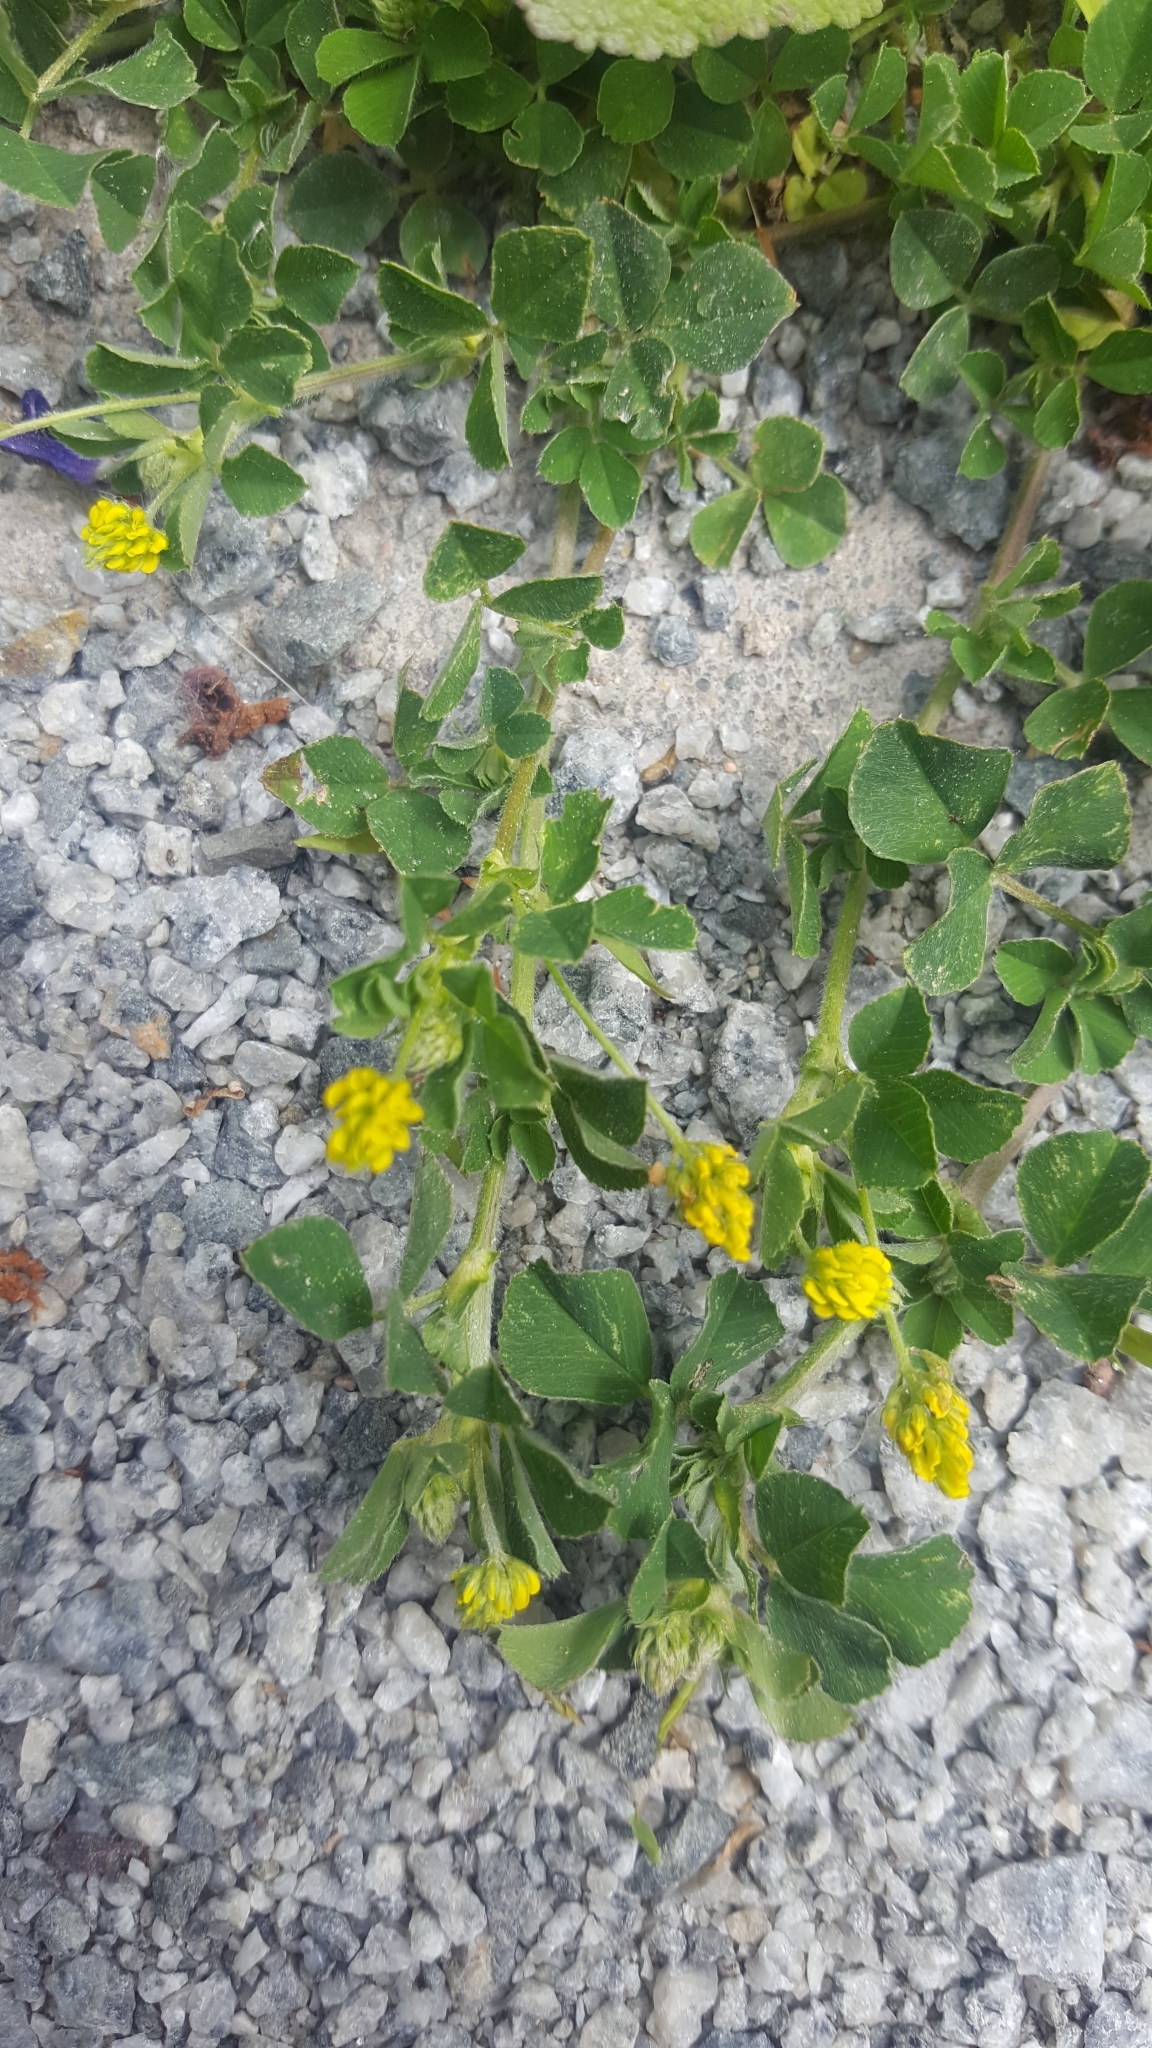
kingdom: Plantae
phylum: Tracheophyta
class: Magnoliopsida
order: Fabales
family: Fabaceae
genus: Medicago
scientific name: Medicago lupulina
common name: Black medick
